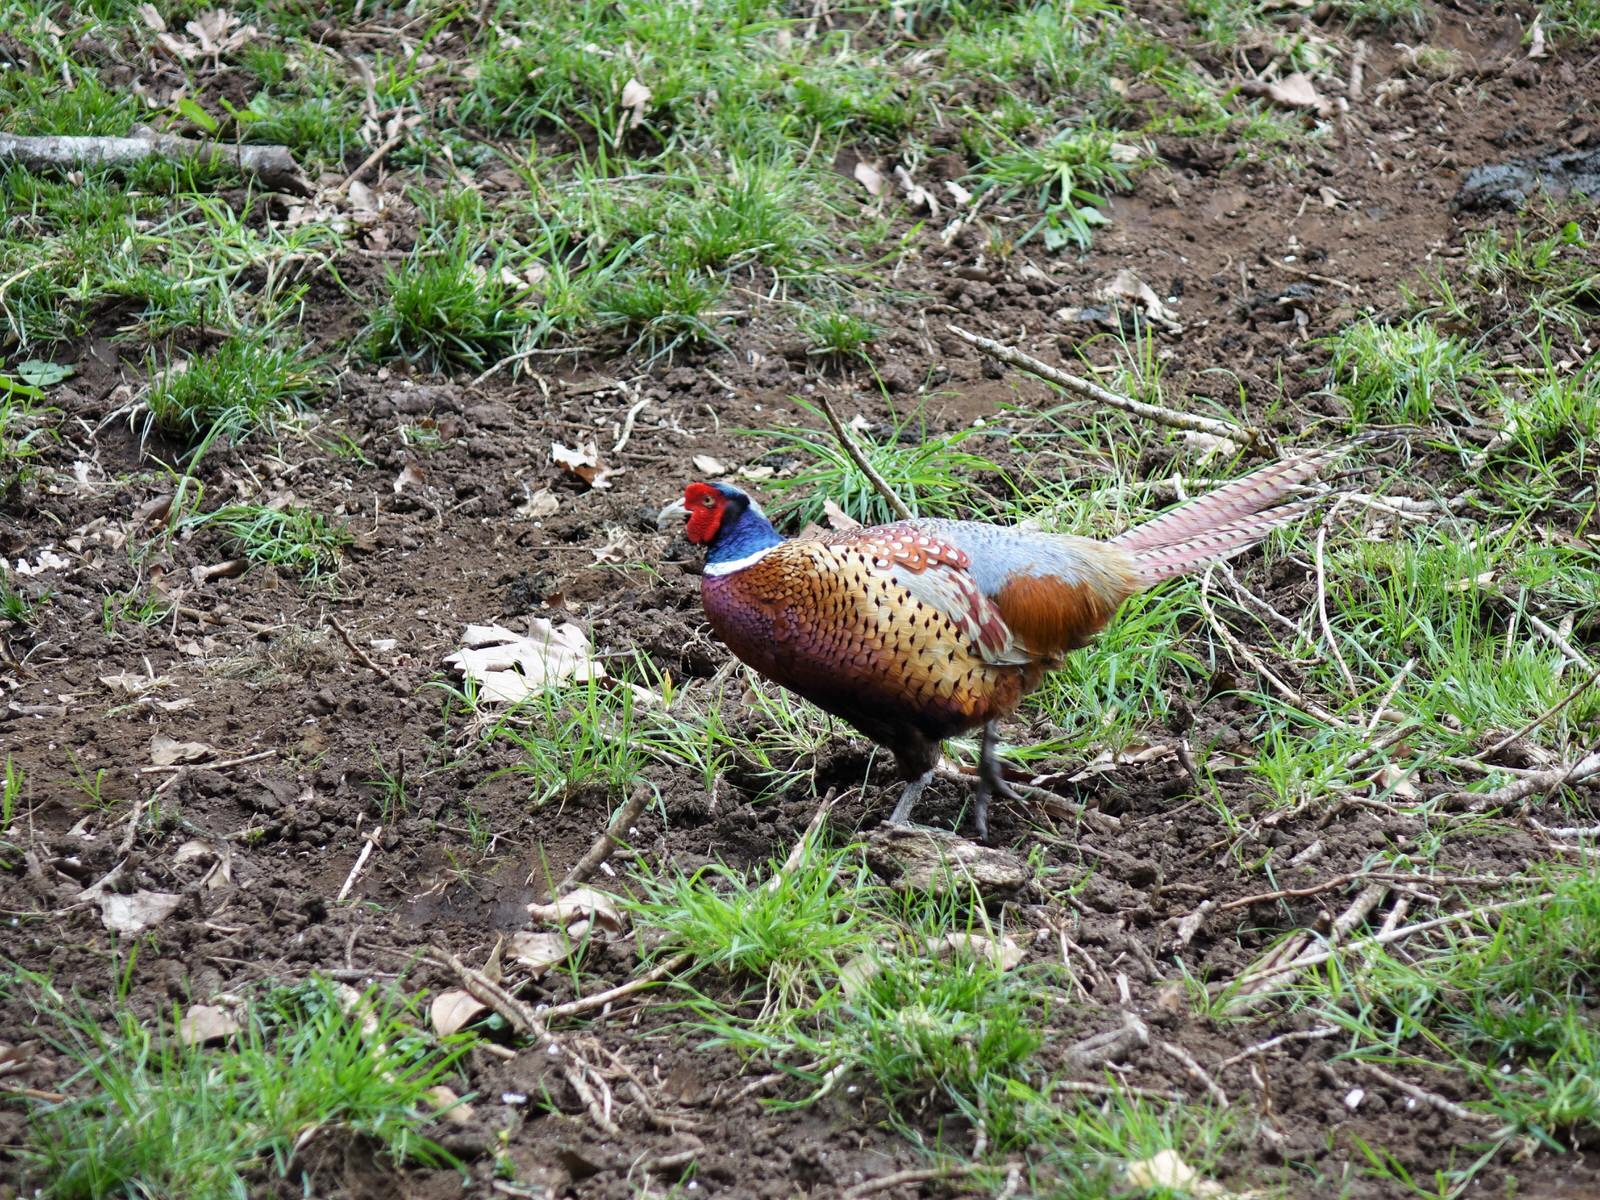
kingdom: Animalia
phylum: Chordata
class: Aves
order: Galliformes
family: Phasianidae
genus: Phasianus
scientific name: Phasianus colchicus
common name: Common pheasant
